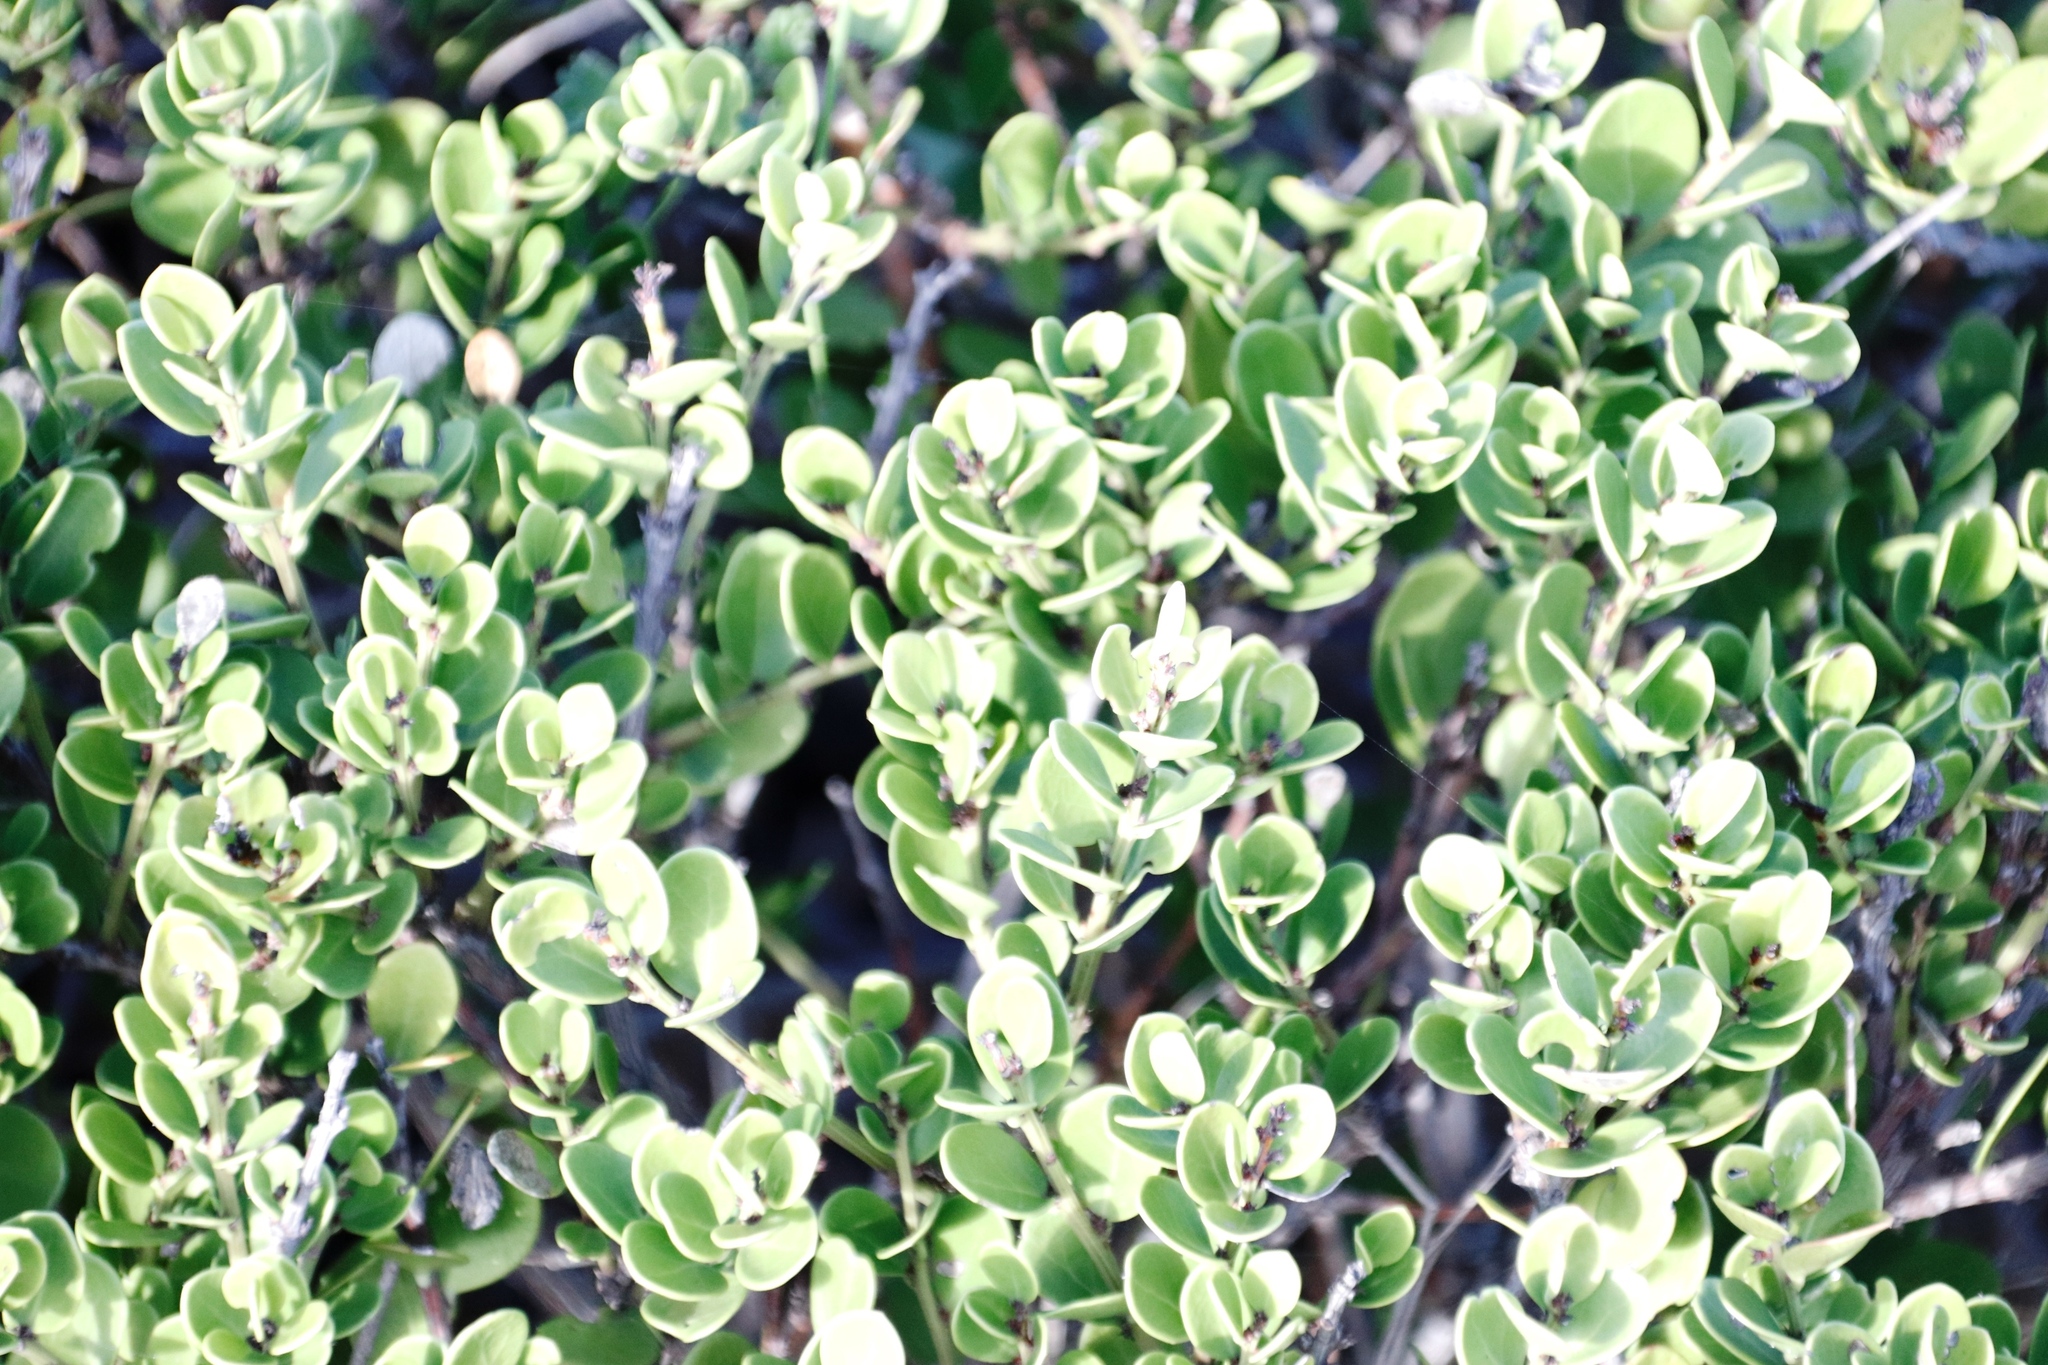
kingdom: Plantae
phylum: Tracheophyta
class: Magnoliopsida
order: Ericales
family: Ebenaceae
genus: Euclea
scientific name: Euclea racemosa
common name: Dune guarri
